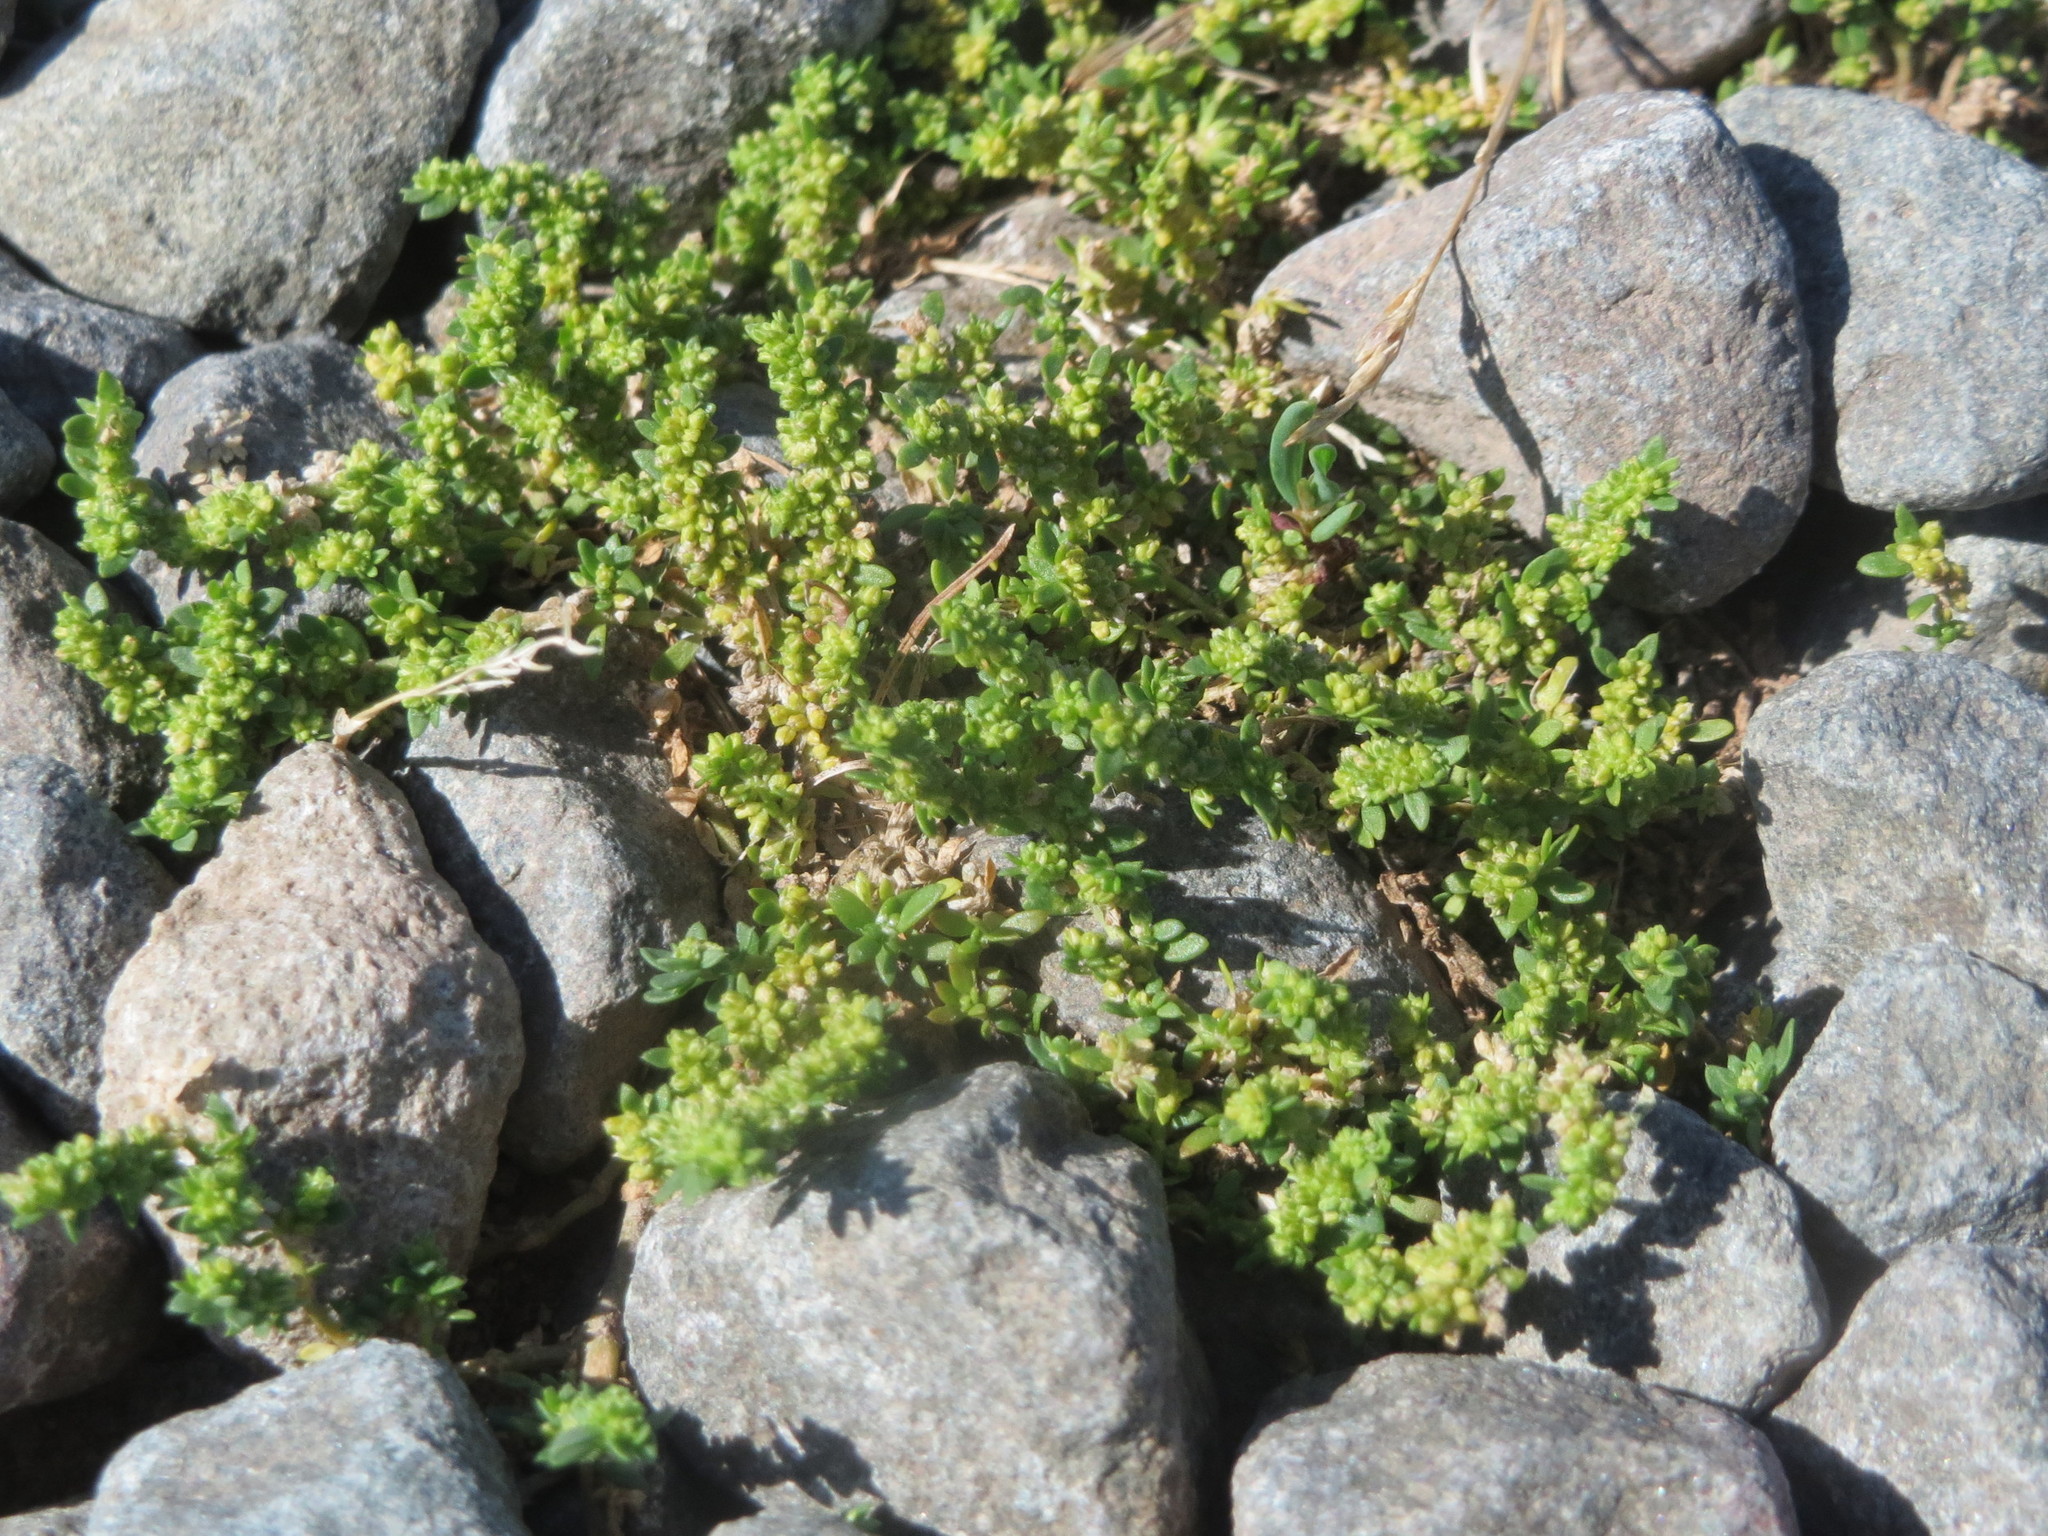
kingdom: Plantae
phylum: Tracheophyta
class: Magnoliopsida
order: Caryophyllales
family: Caryophyllaceae
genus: Herniaria
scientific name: Herniaria glabra
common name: Smooth rupturewort
